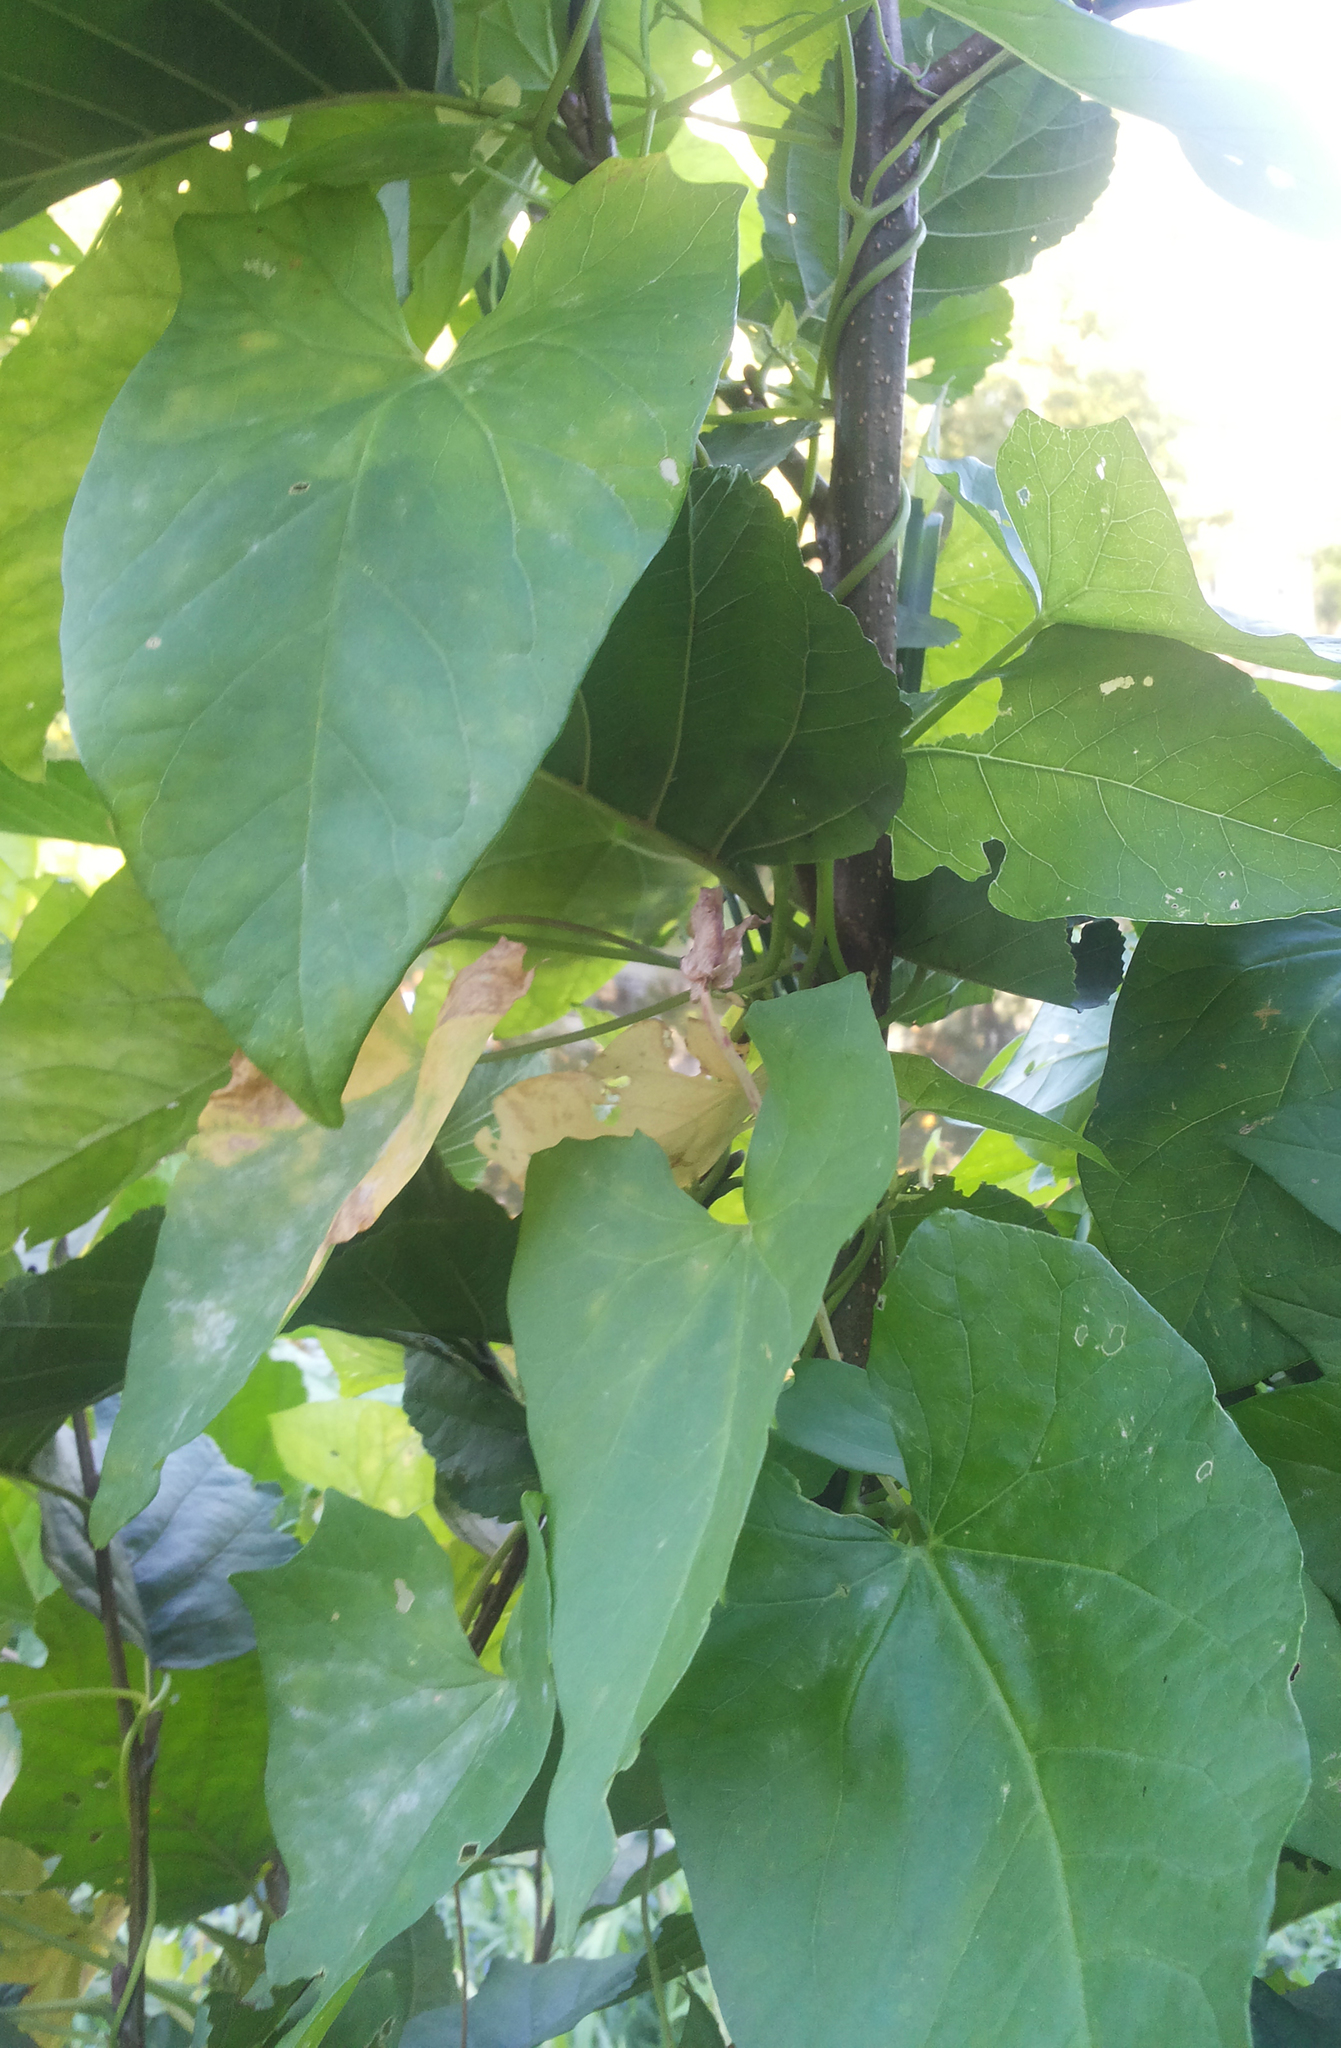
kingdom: Plantae
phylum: Tracheophyta
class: Magnoliopsida
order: Solanales
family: Convolvulaceae
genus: Calystegia
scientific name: Calystegia sepium
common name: Hedge bindweed
